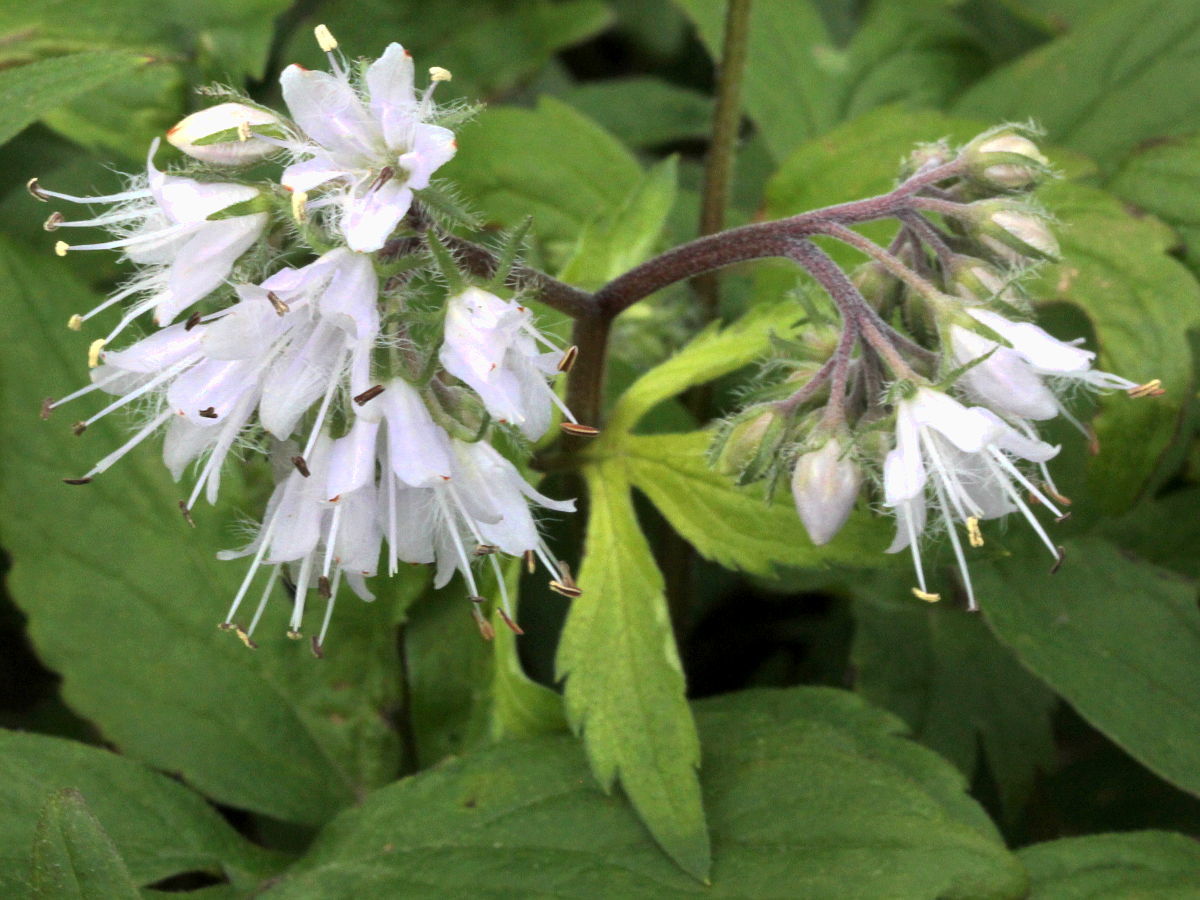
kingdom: Plantae
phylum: Tracheophyta
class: Magnoliopsida
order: Boraginales
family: Hydrophyllaceae
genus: Hydrophyllum
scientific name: Hydrophyllum virginianum
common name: Virginia waterleaf
